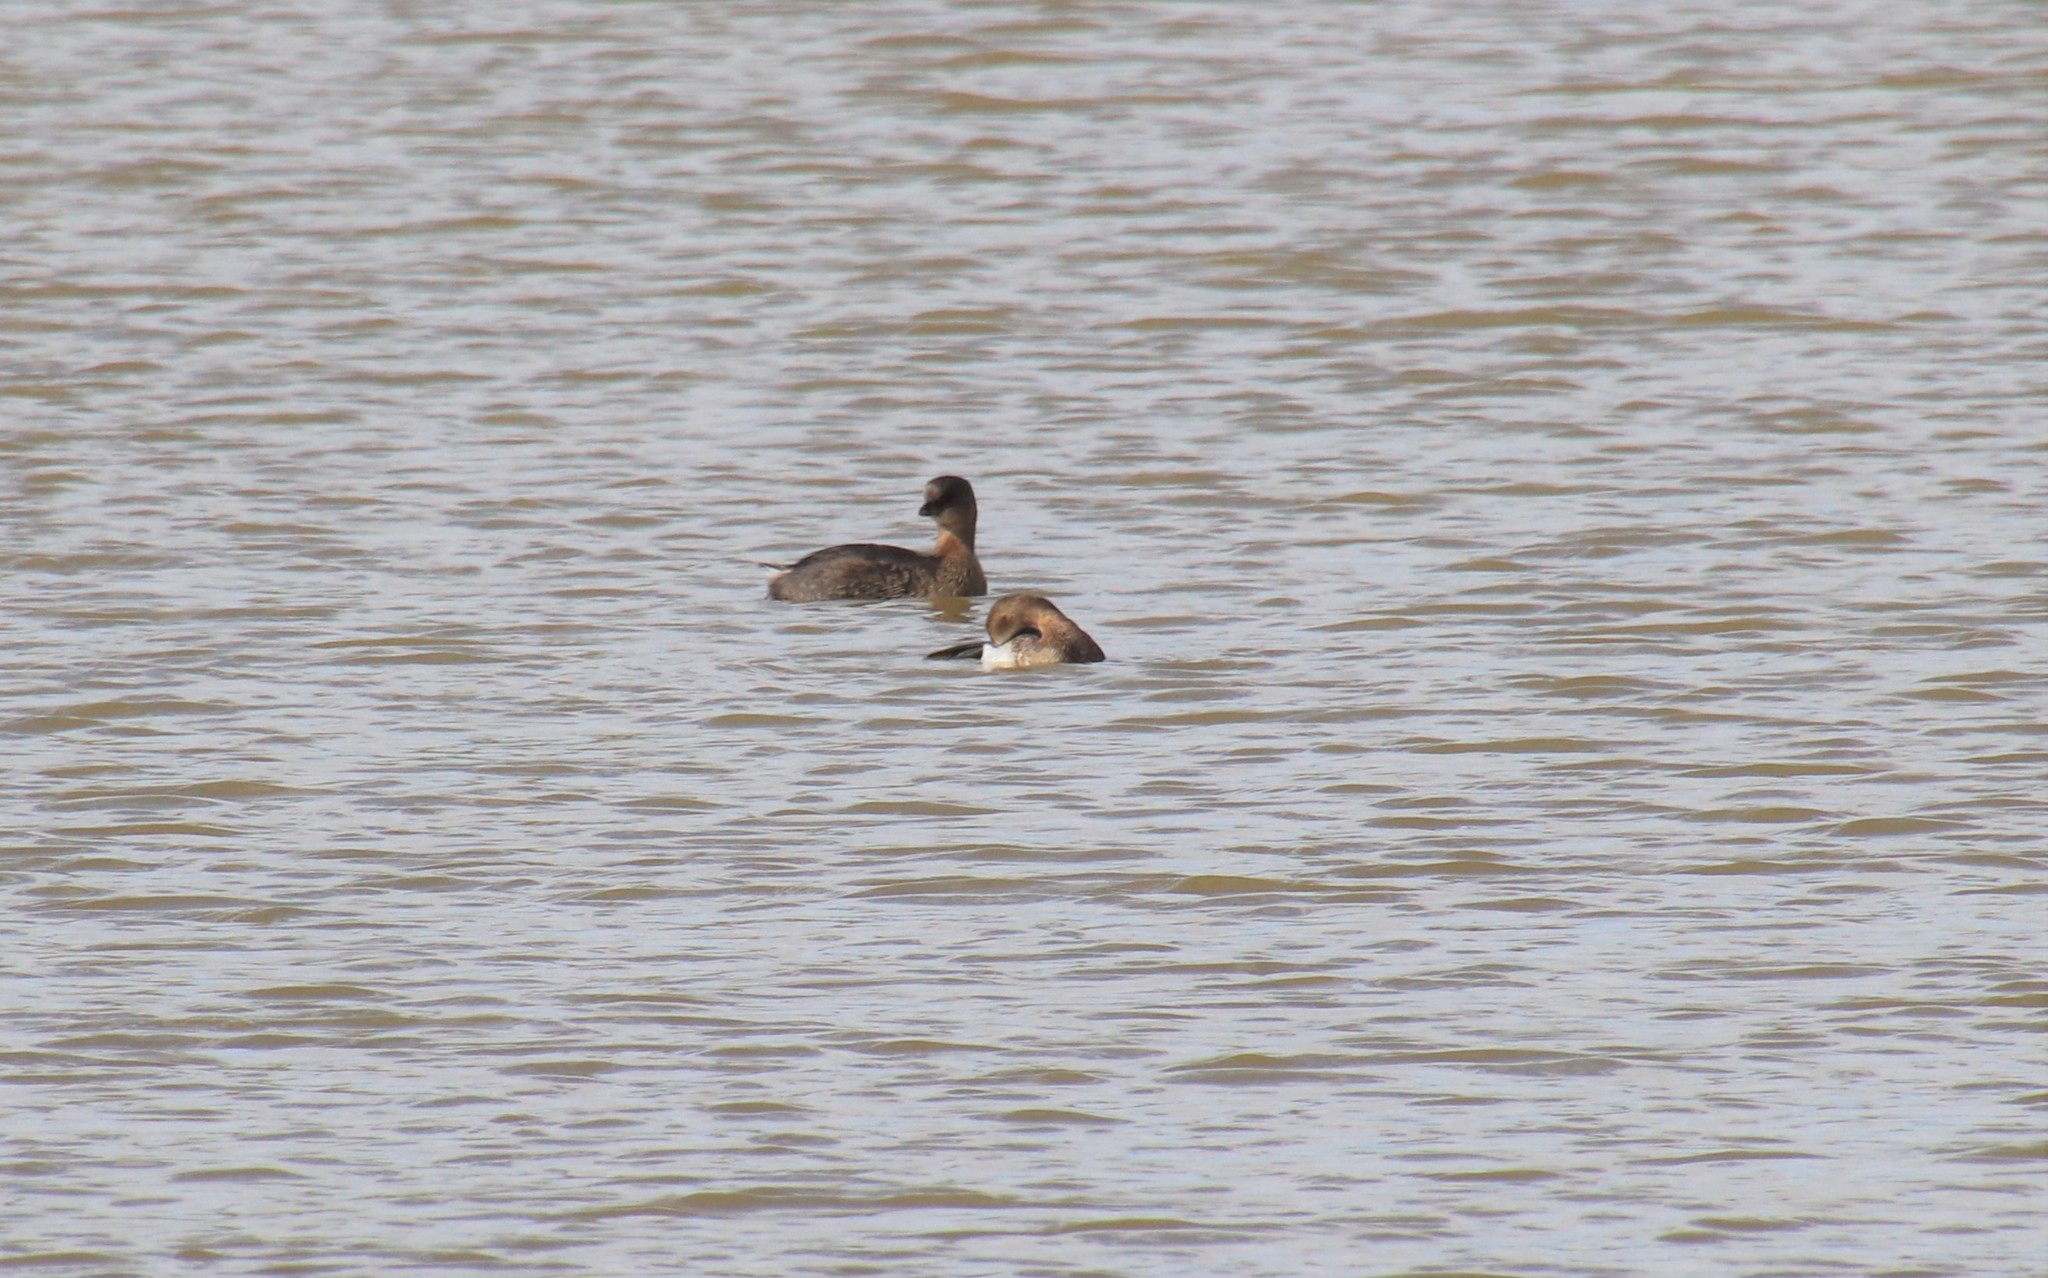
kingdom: Animalia
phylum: Chordata
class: Aves
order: Podicipediformes
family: Podicipedidae
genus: Podilymbus
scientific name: Podilymbus podiceps
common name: Pied-billed grebe
